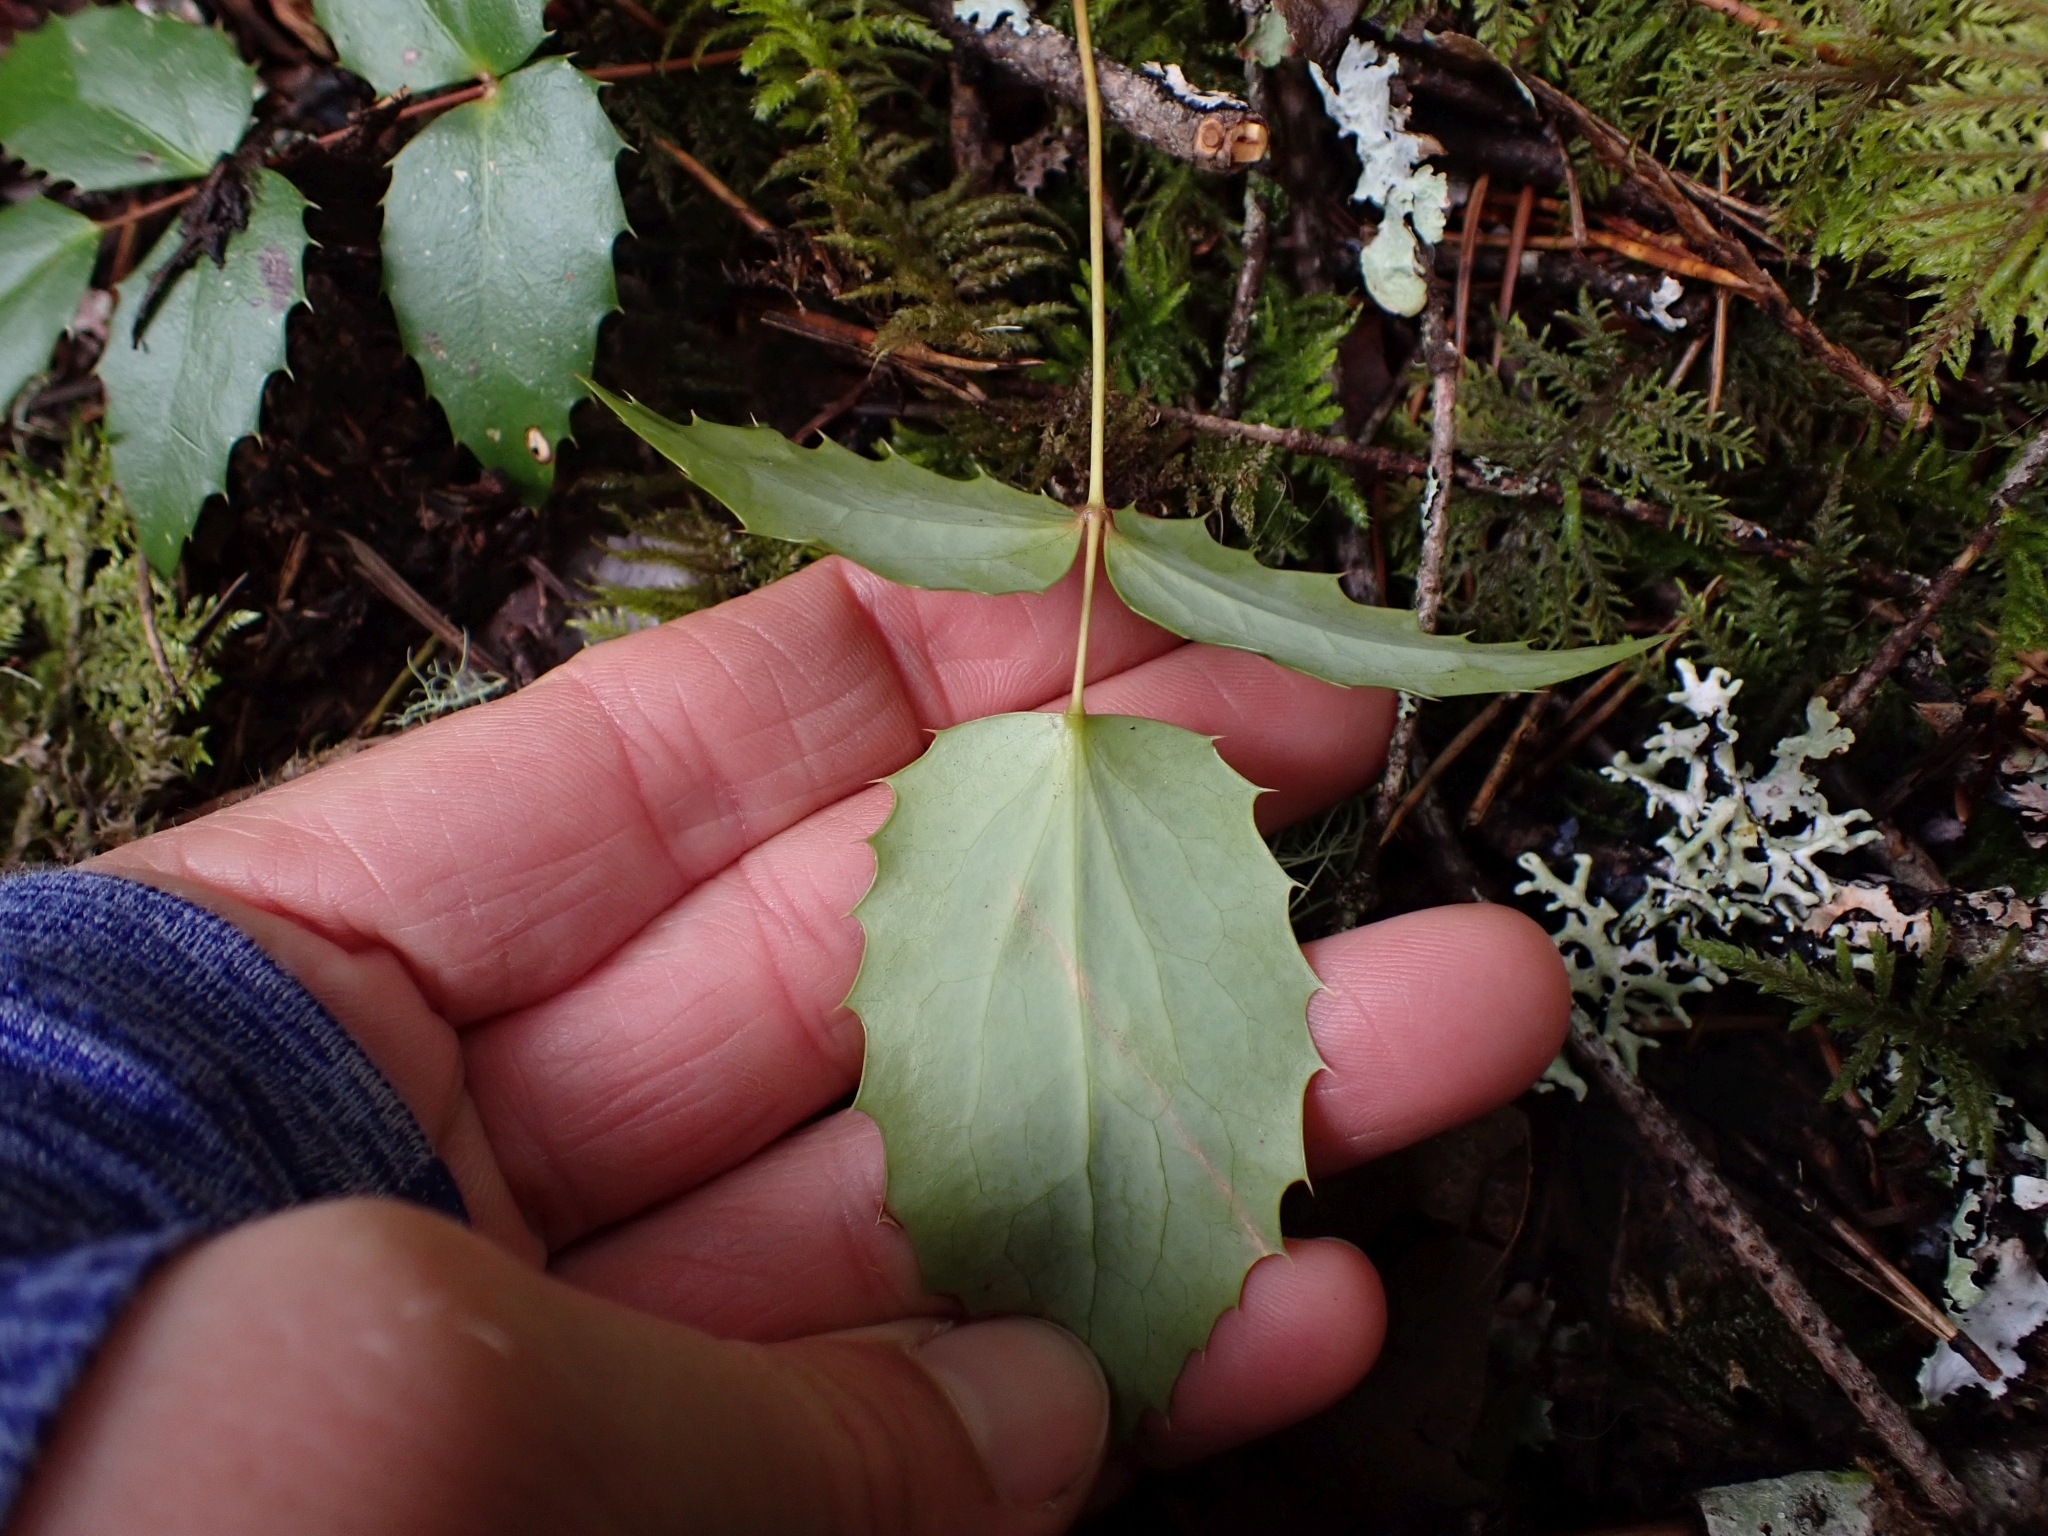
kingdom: Plantae
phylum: Tracheophyta
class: Magnoliopsida
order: Ranunculales
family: Berberidaceae
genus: Mahonia
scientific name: Mahonia nervosa
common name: Cascade oregon-grape
